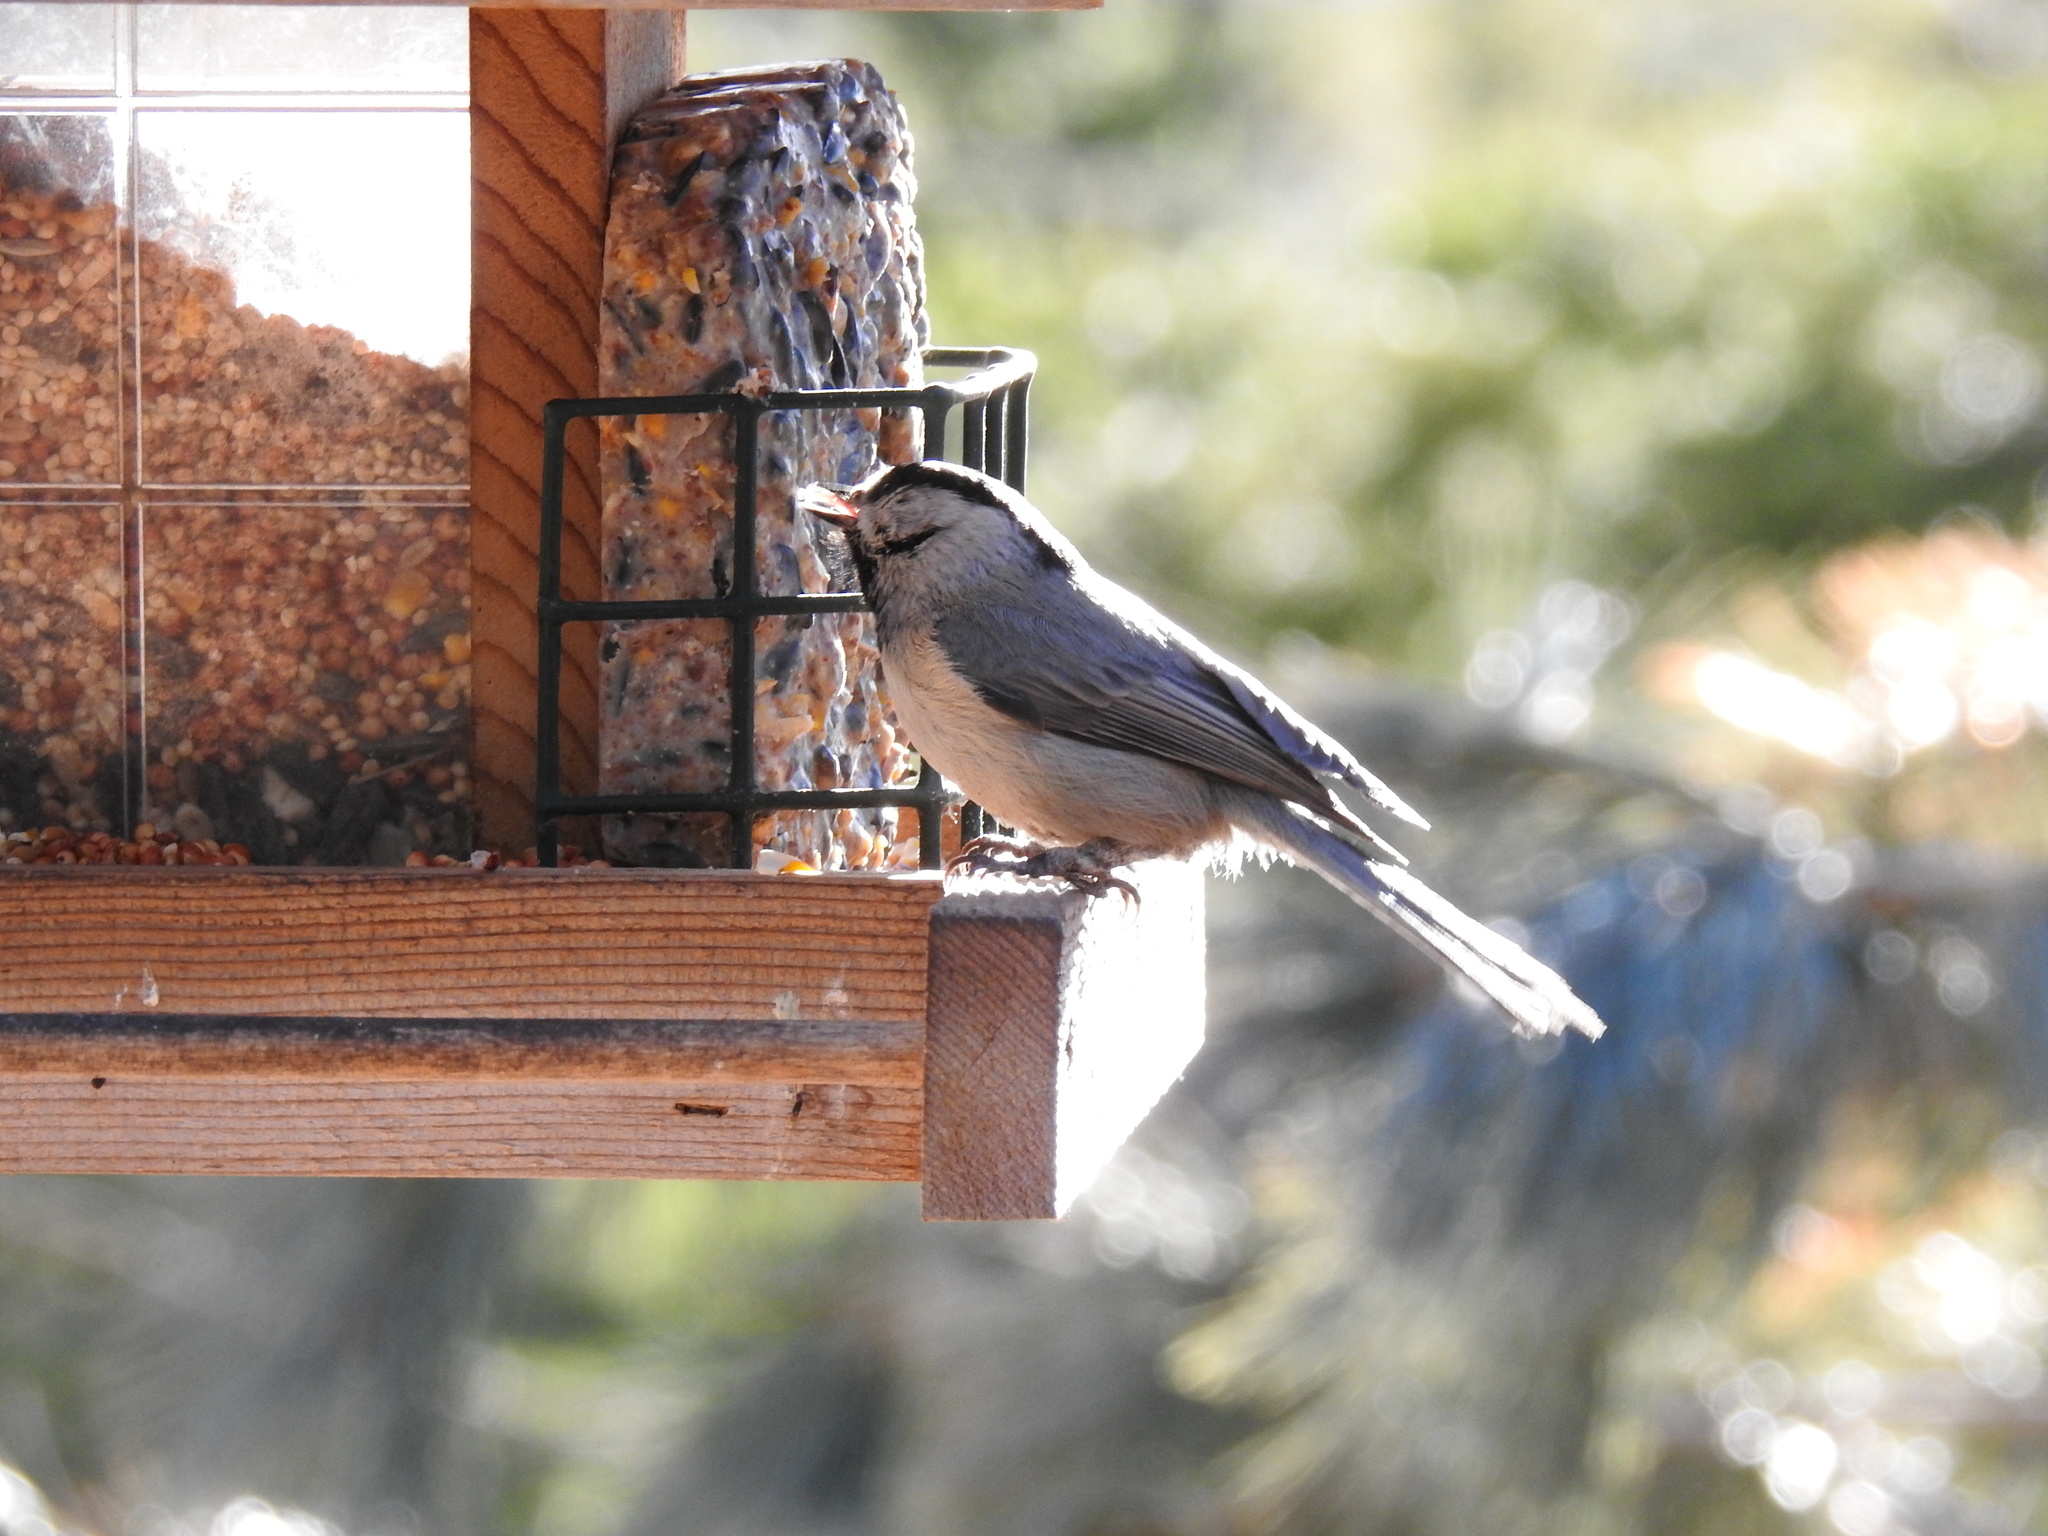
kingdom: Animalia
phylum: Chordata
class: Aves
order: Passeriformes
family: Paridae
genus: Poecile
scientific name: Poecile gambeli
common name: Mountain chickadee
